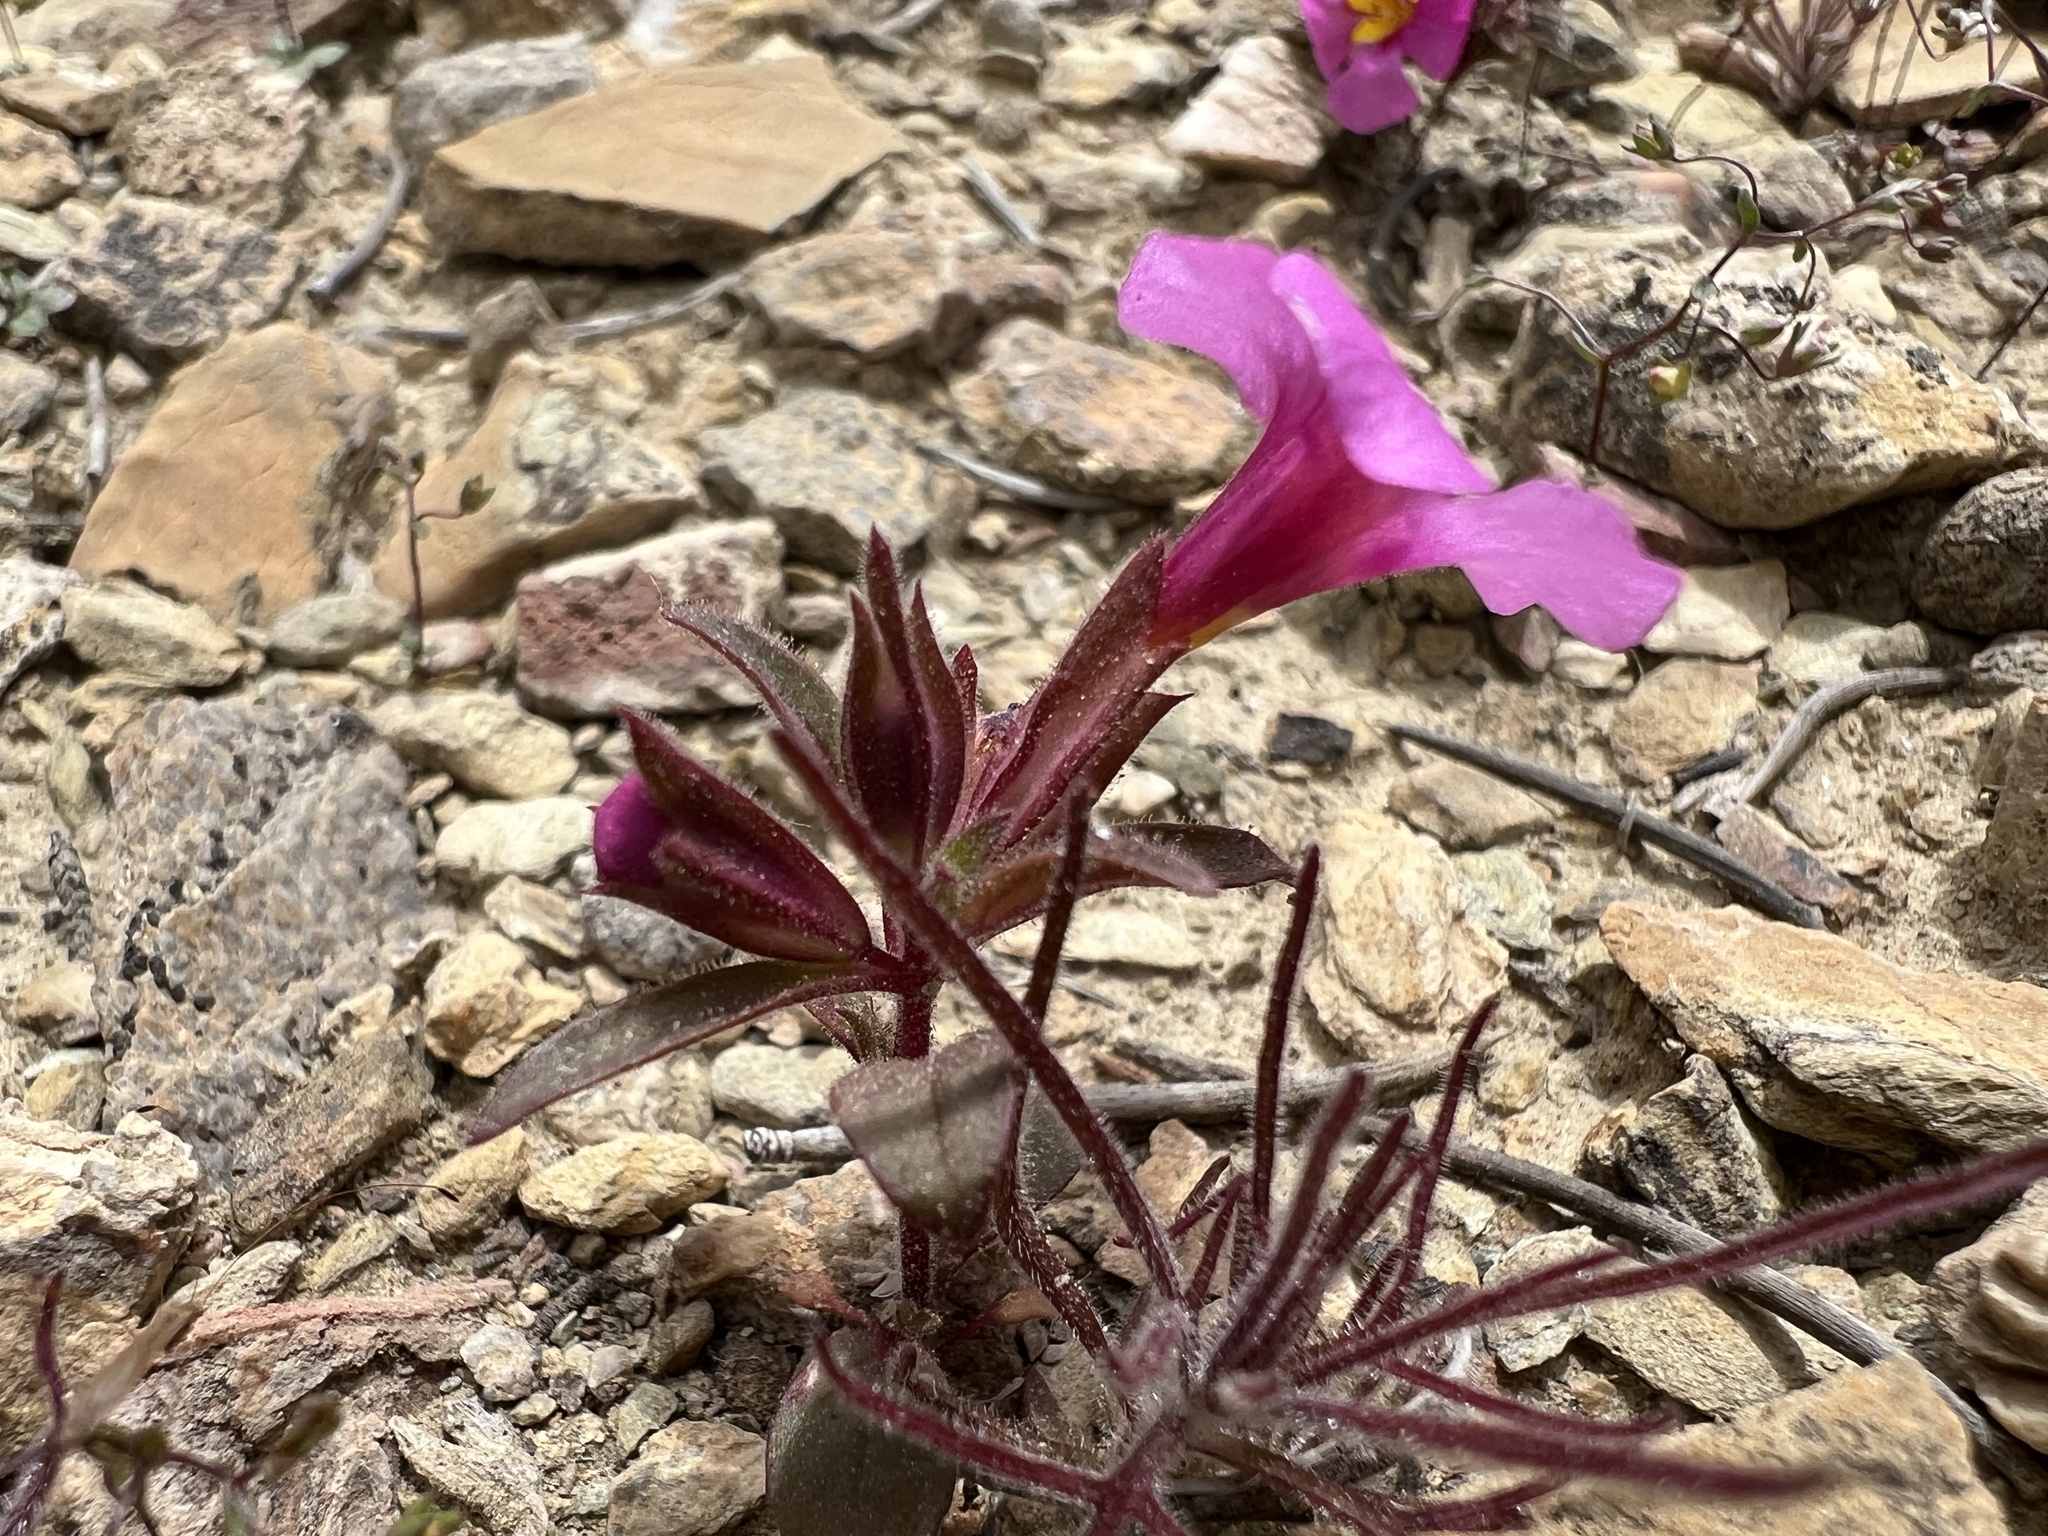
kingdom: Plantae
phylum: Tracheophyta
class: Magnoliopsida
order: Lamiales
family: Phrymaceae
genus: Diplacus
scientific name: Diplacus parryi
